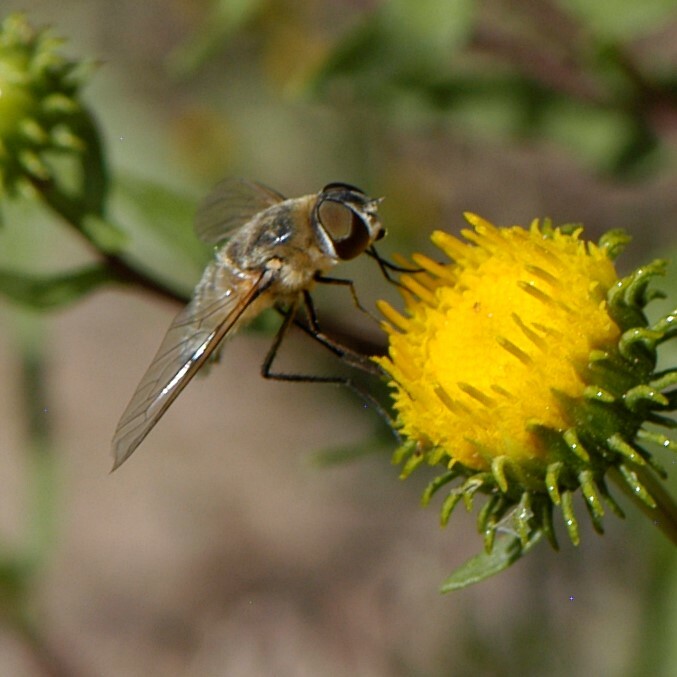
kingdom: Animalia
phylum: Arthropoda
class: Insecta
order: Diptera
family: Bombyliidae
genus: Villa
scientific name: Villa
